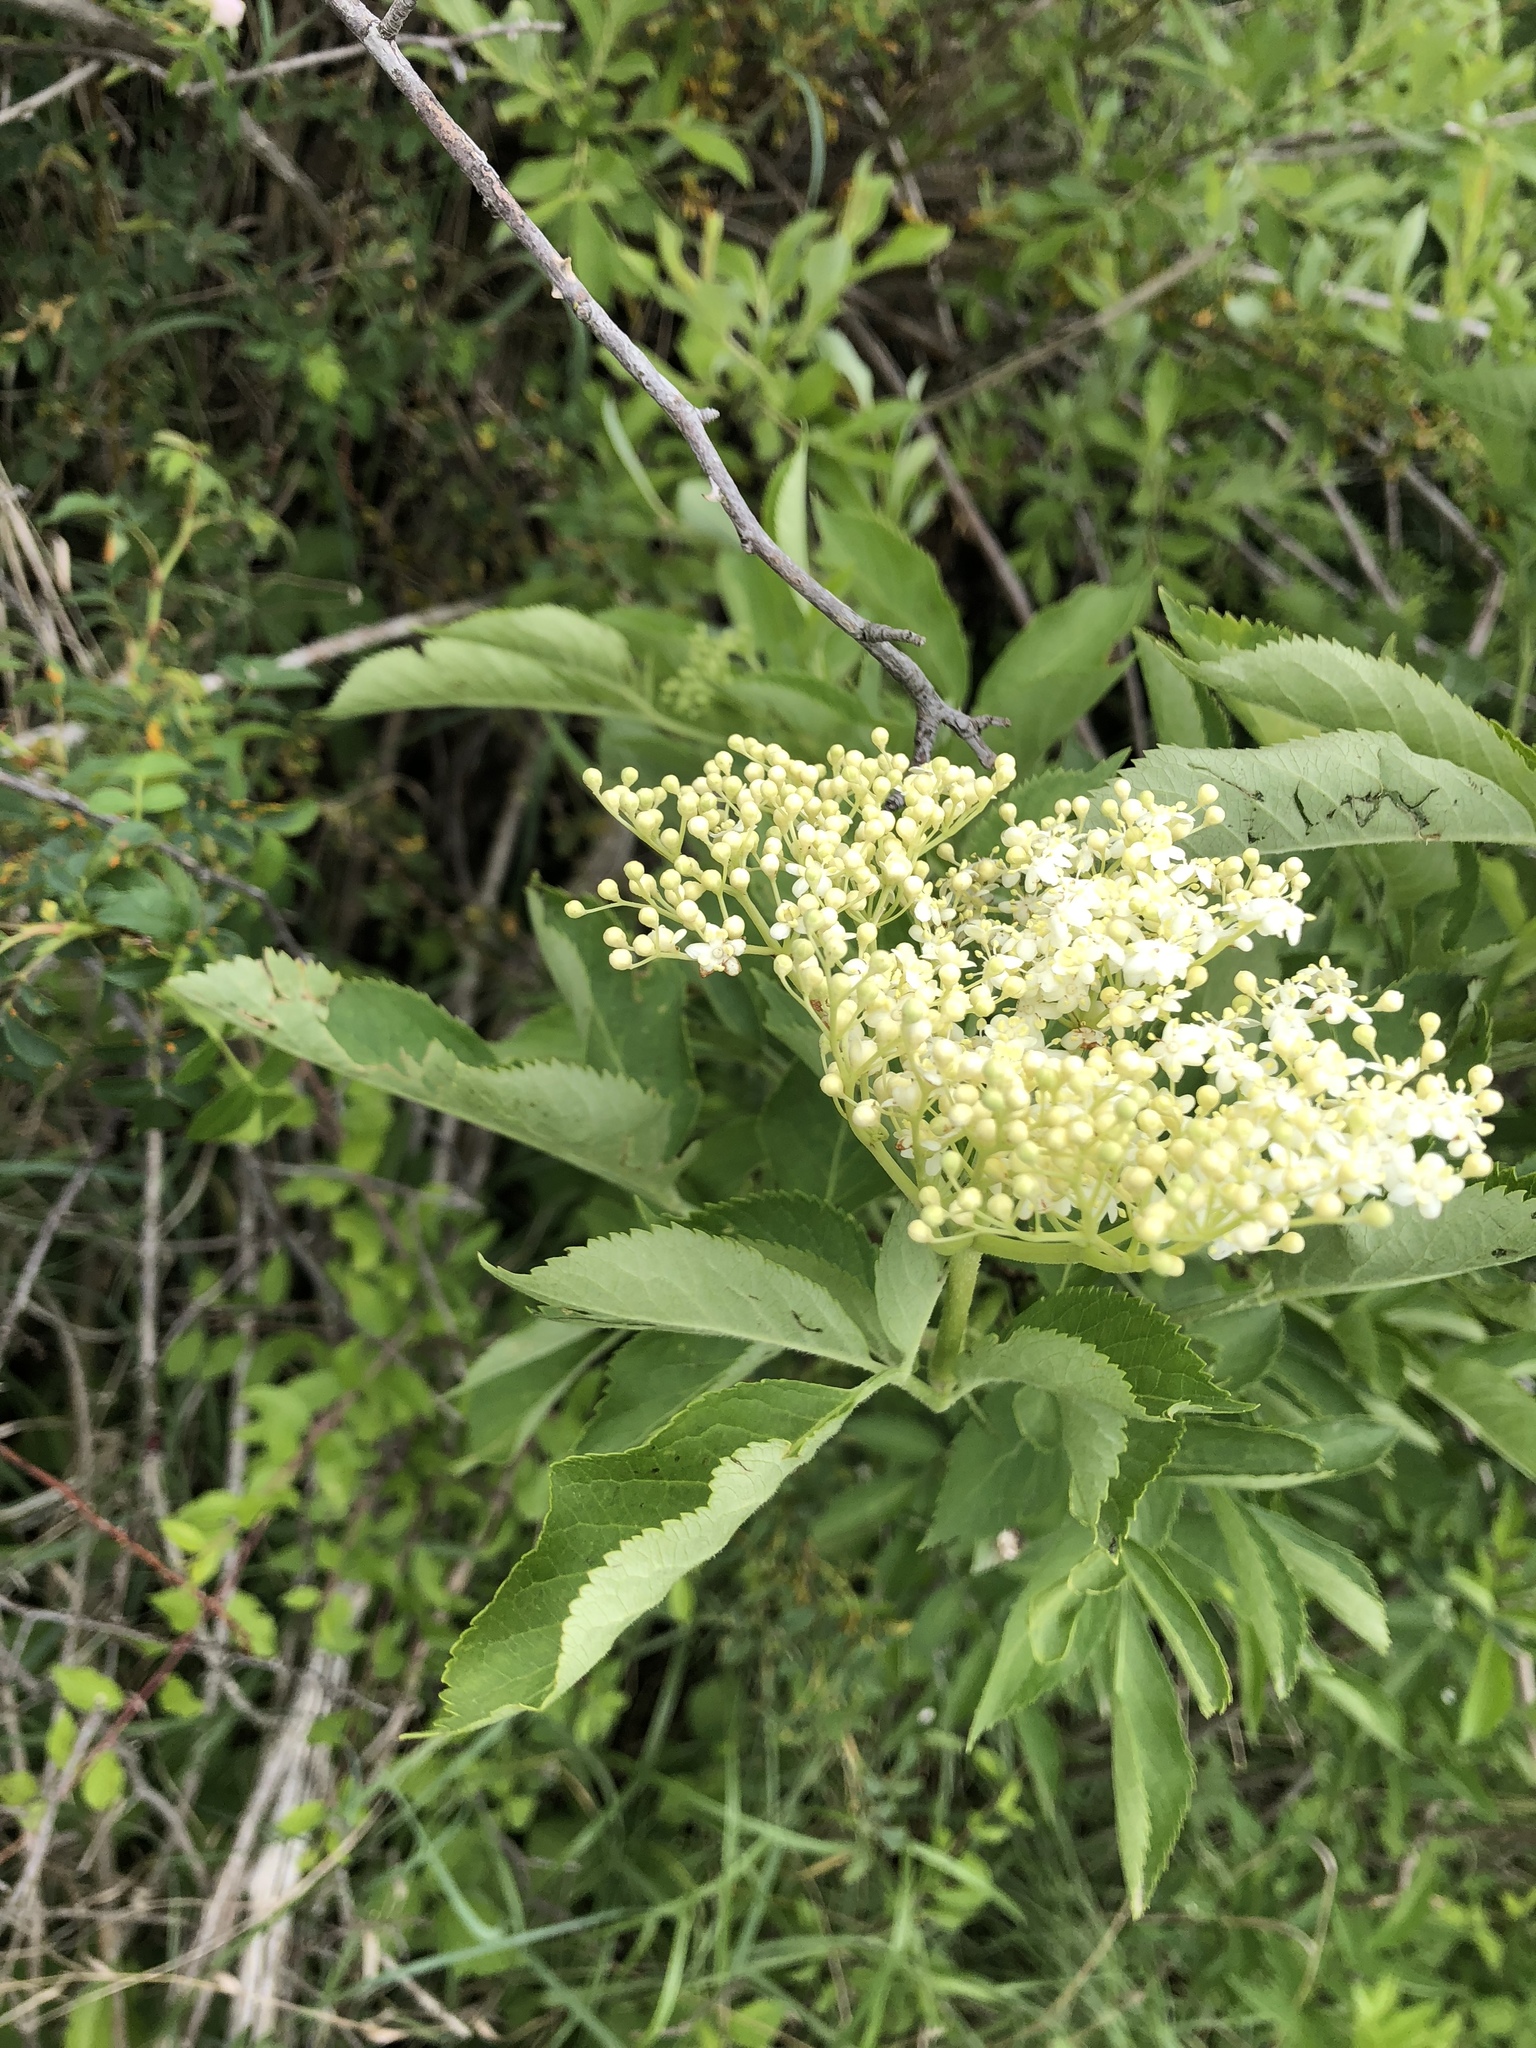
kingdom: Plantae
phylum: Tracheophyta
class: Magnoliopsida
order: Dipsacales
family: Viburnaceae
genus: Sambucus
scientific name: Sambucus nigra
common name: Elder
